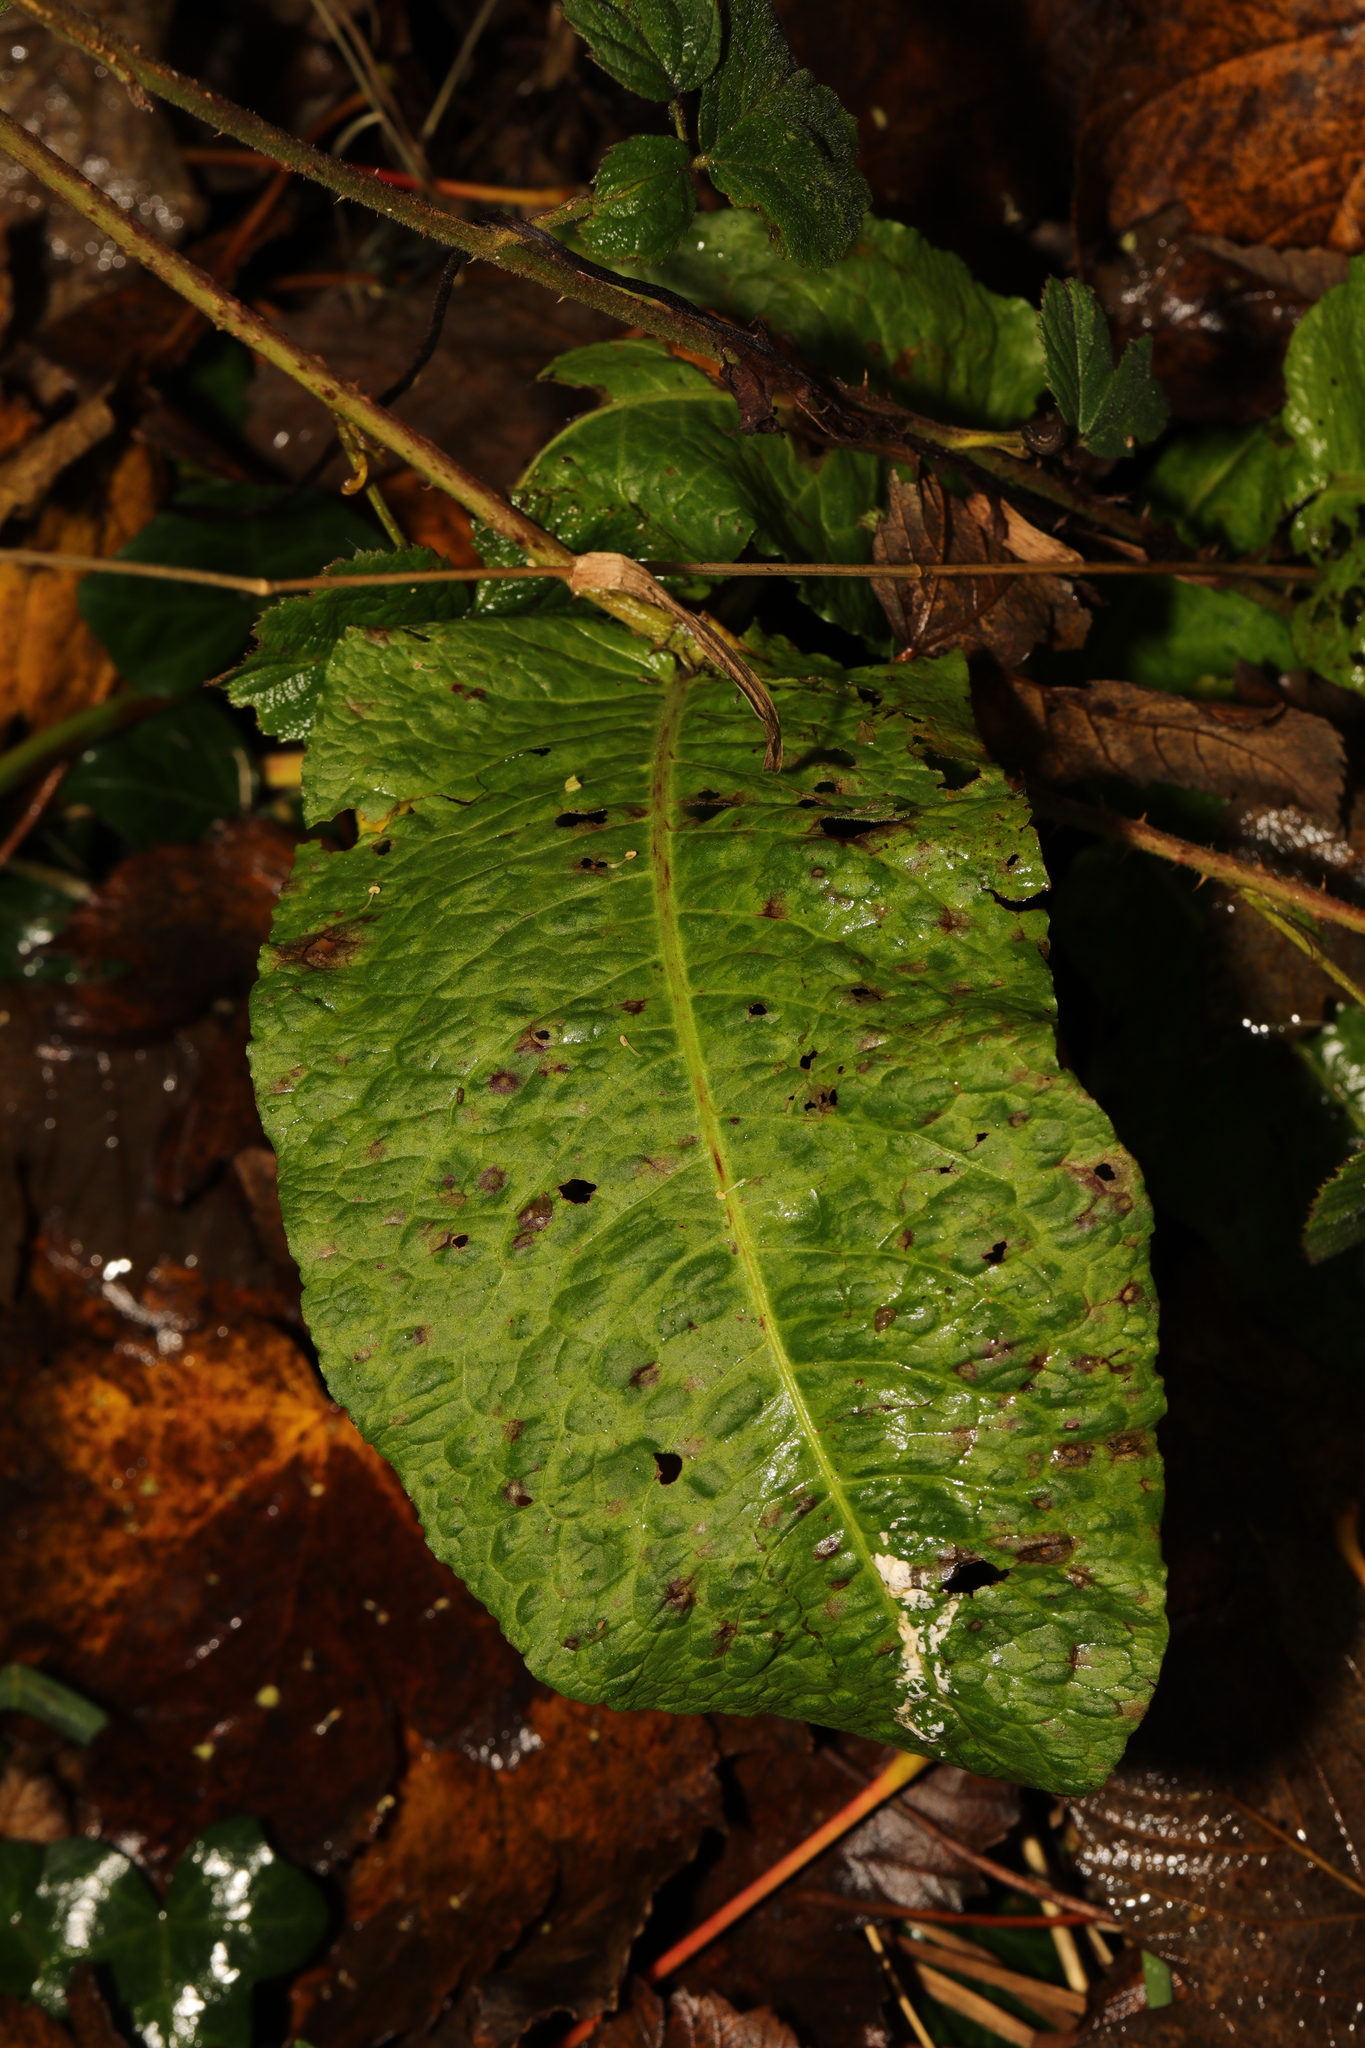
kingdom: Plantae
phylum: Tracheophyta
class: Magnoliopsida
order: Caryophyllales
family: Polygonaceae
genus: Rumex
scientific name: Rumex obtusifolius
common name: Bitter dock
